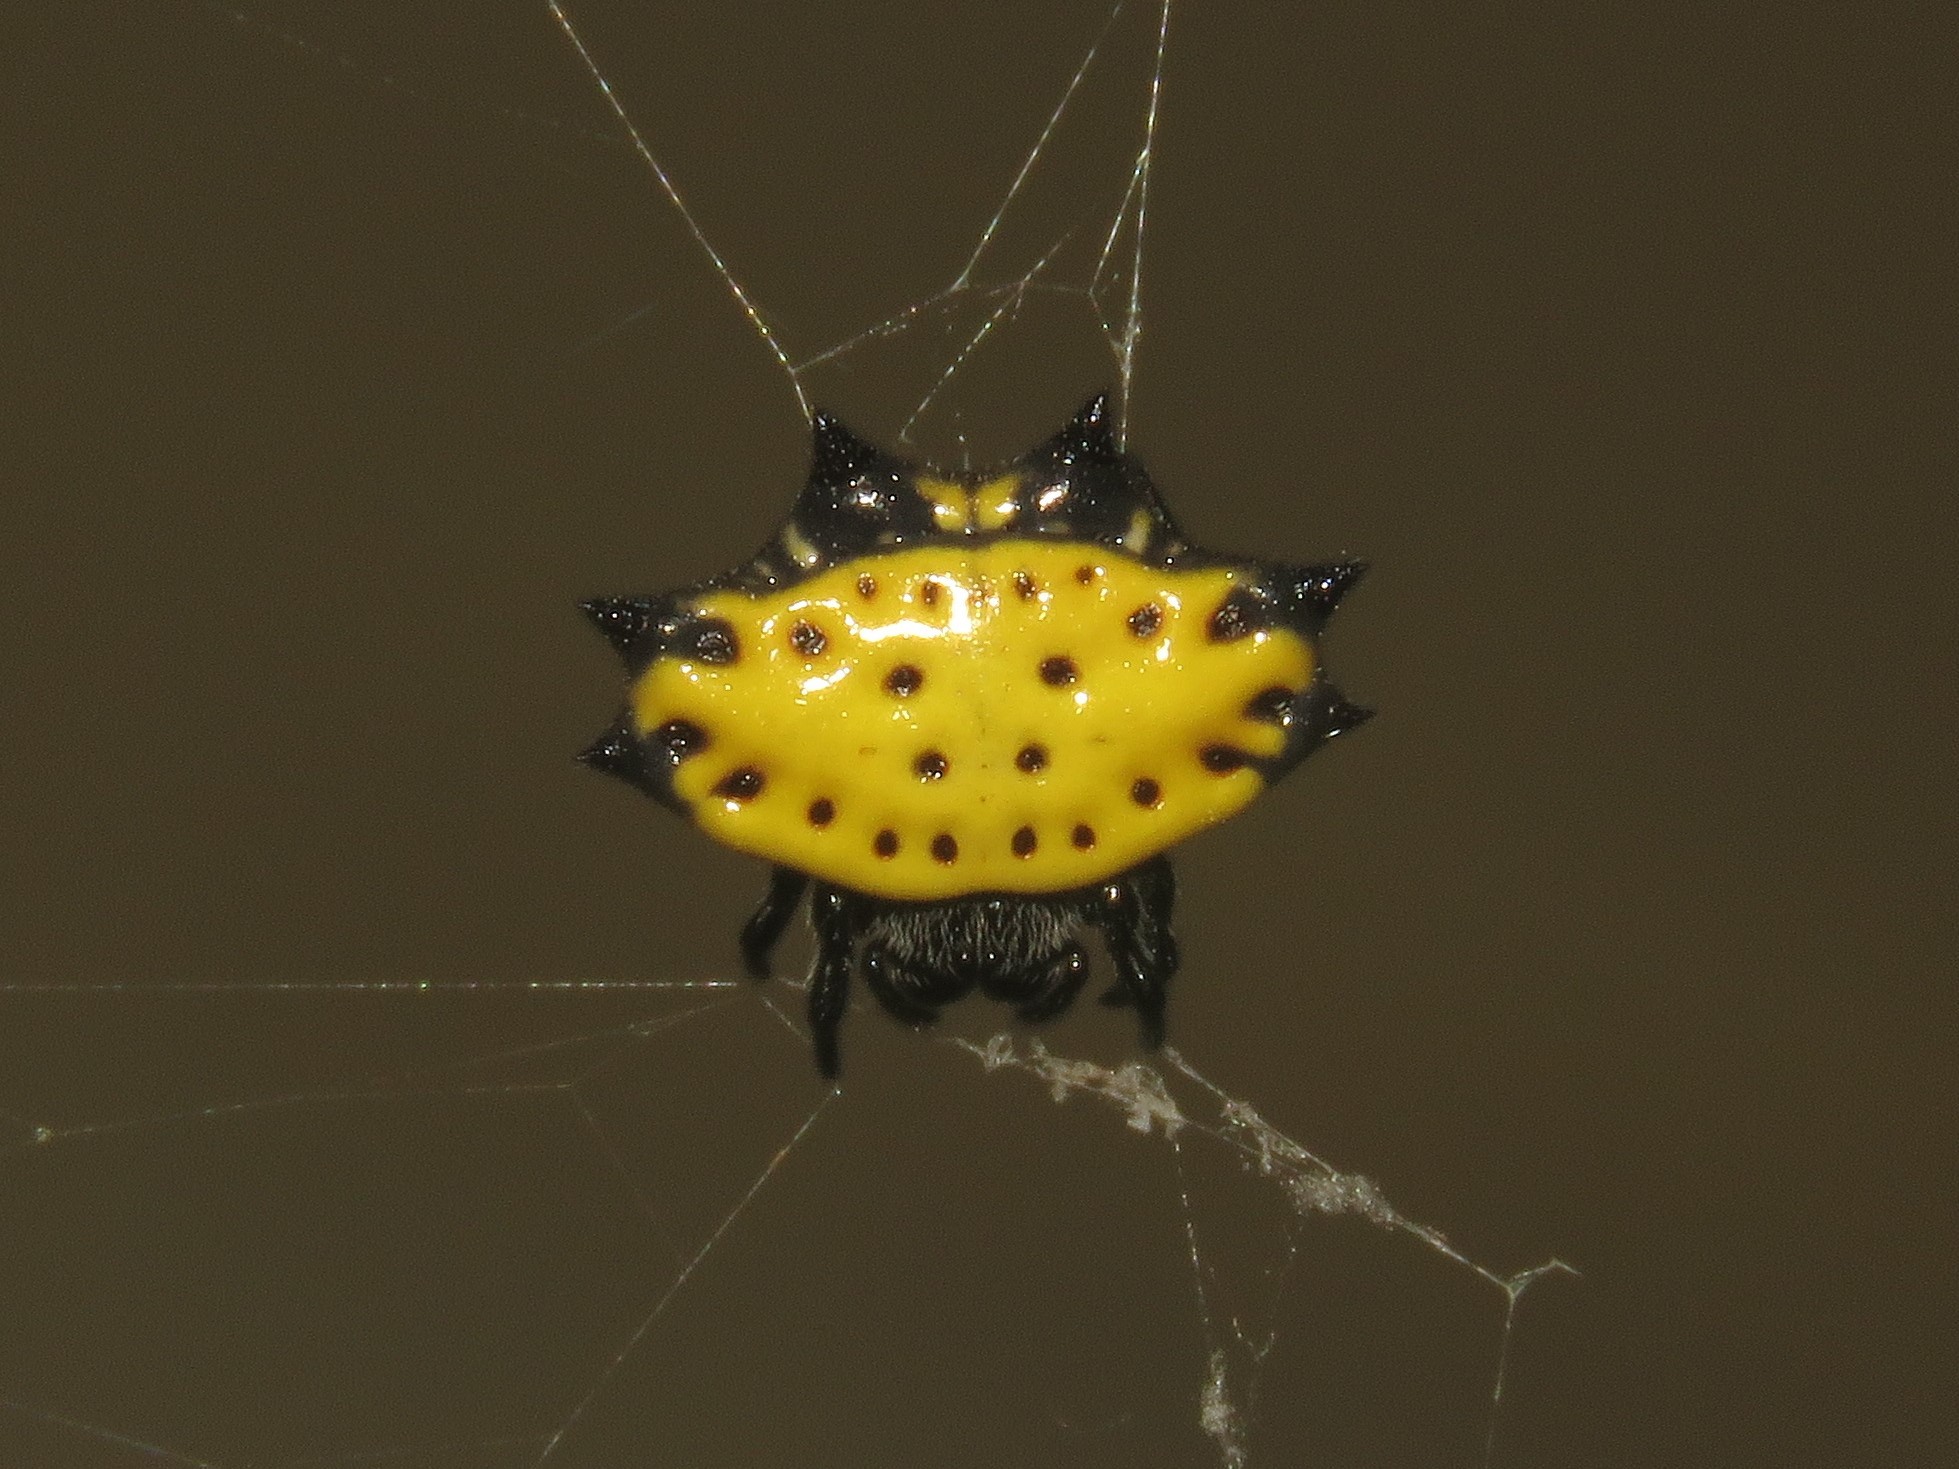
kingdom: Animalia
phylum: Arthropoda
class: Arachnida
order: Araneae
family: Araneidae
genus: Gasteracantha
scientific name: Gasteracantha cancriformis
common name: Orb weavers
